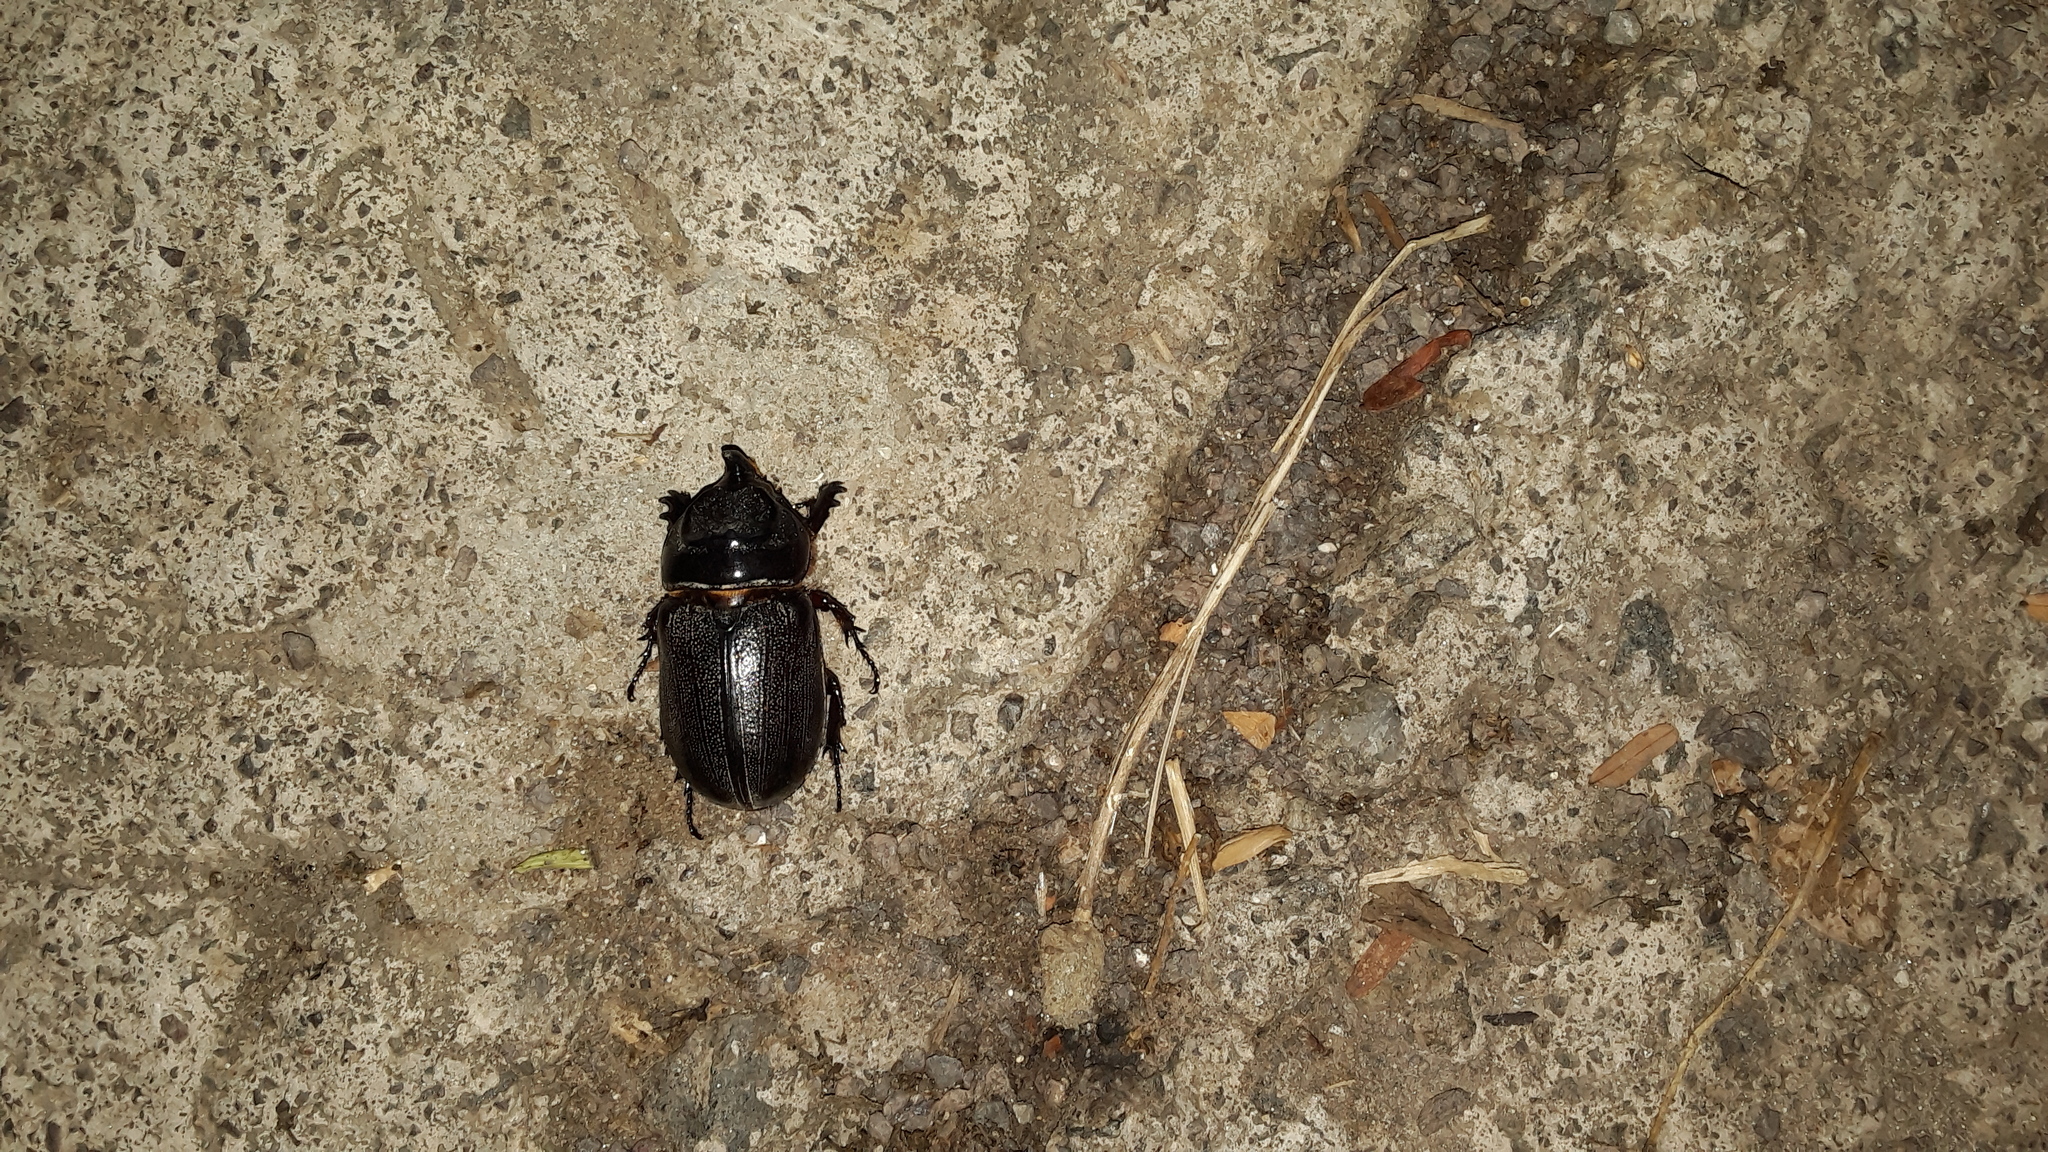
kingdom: Animalia
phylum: Arthropoda
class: Insecta
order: Coleoptera
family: Scarabaeidae
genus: Oryctes
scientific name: Oryctes rhinoceros
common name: Coconut rhinoceros beetle
